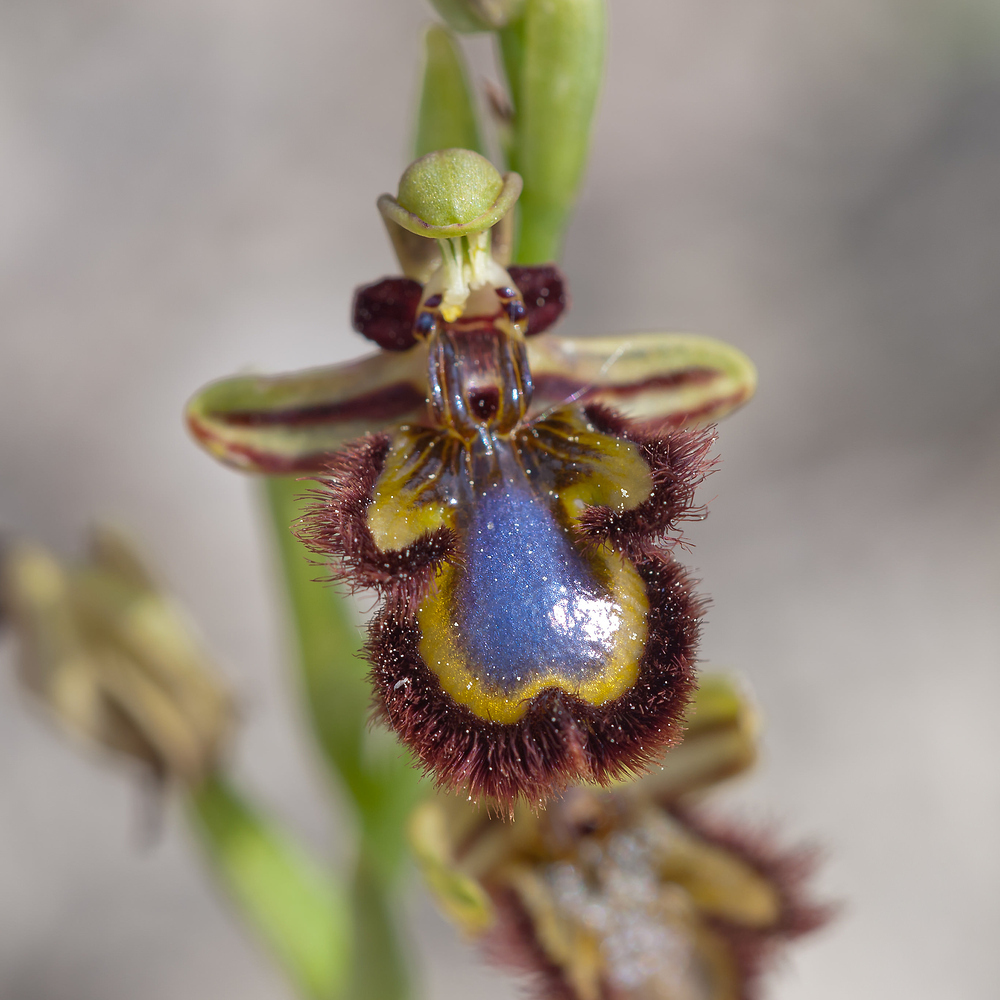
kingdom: Plantae
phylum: Tracheophyta
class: Liliopsida
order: Asparagales
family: Orchidaceae
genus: Ophrys
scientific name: Ophrys speculum
